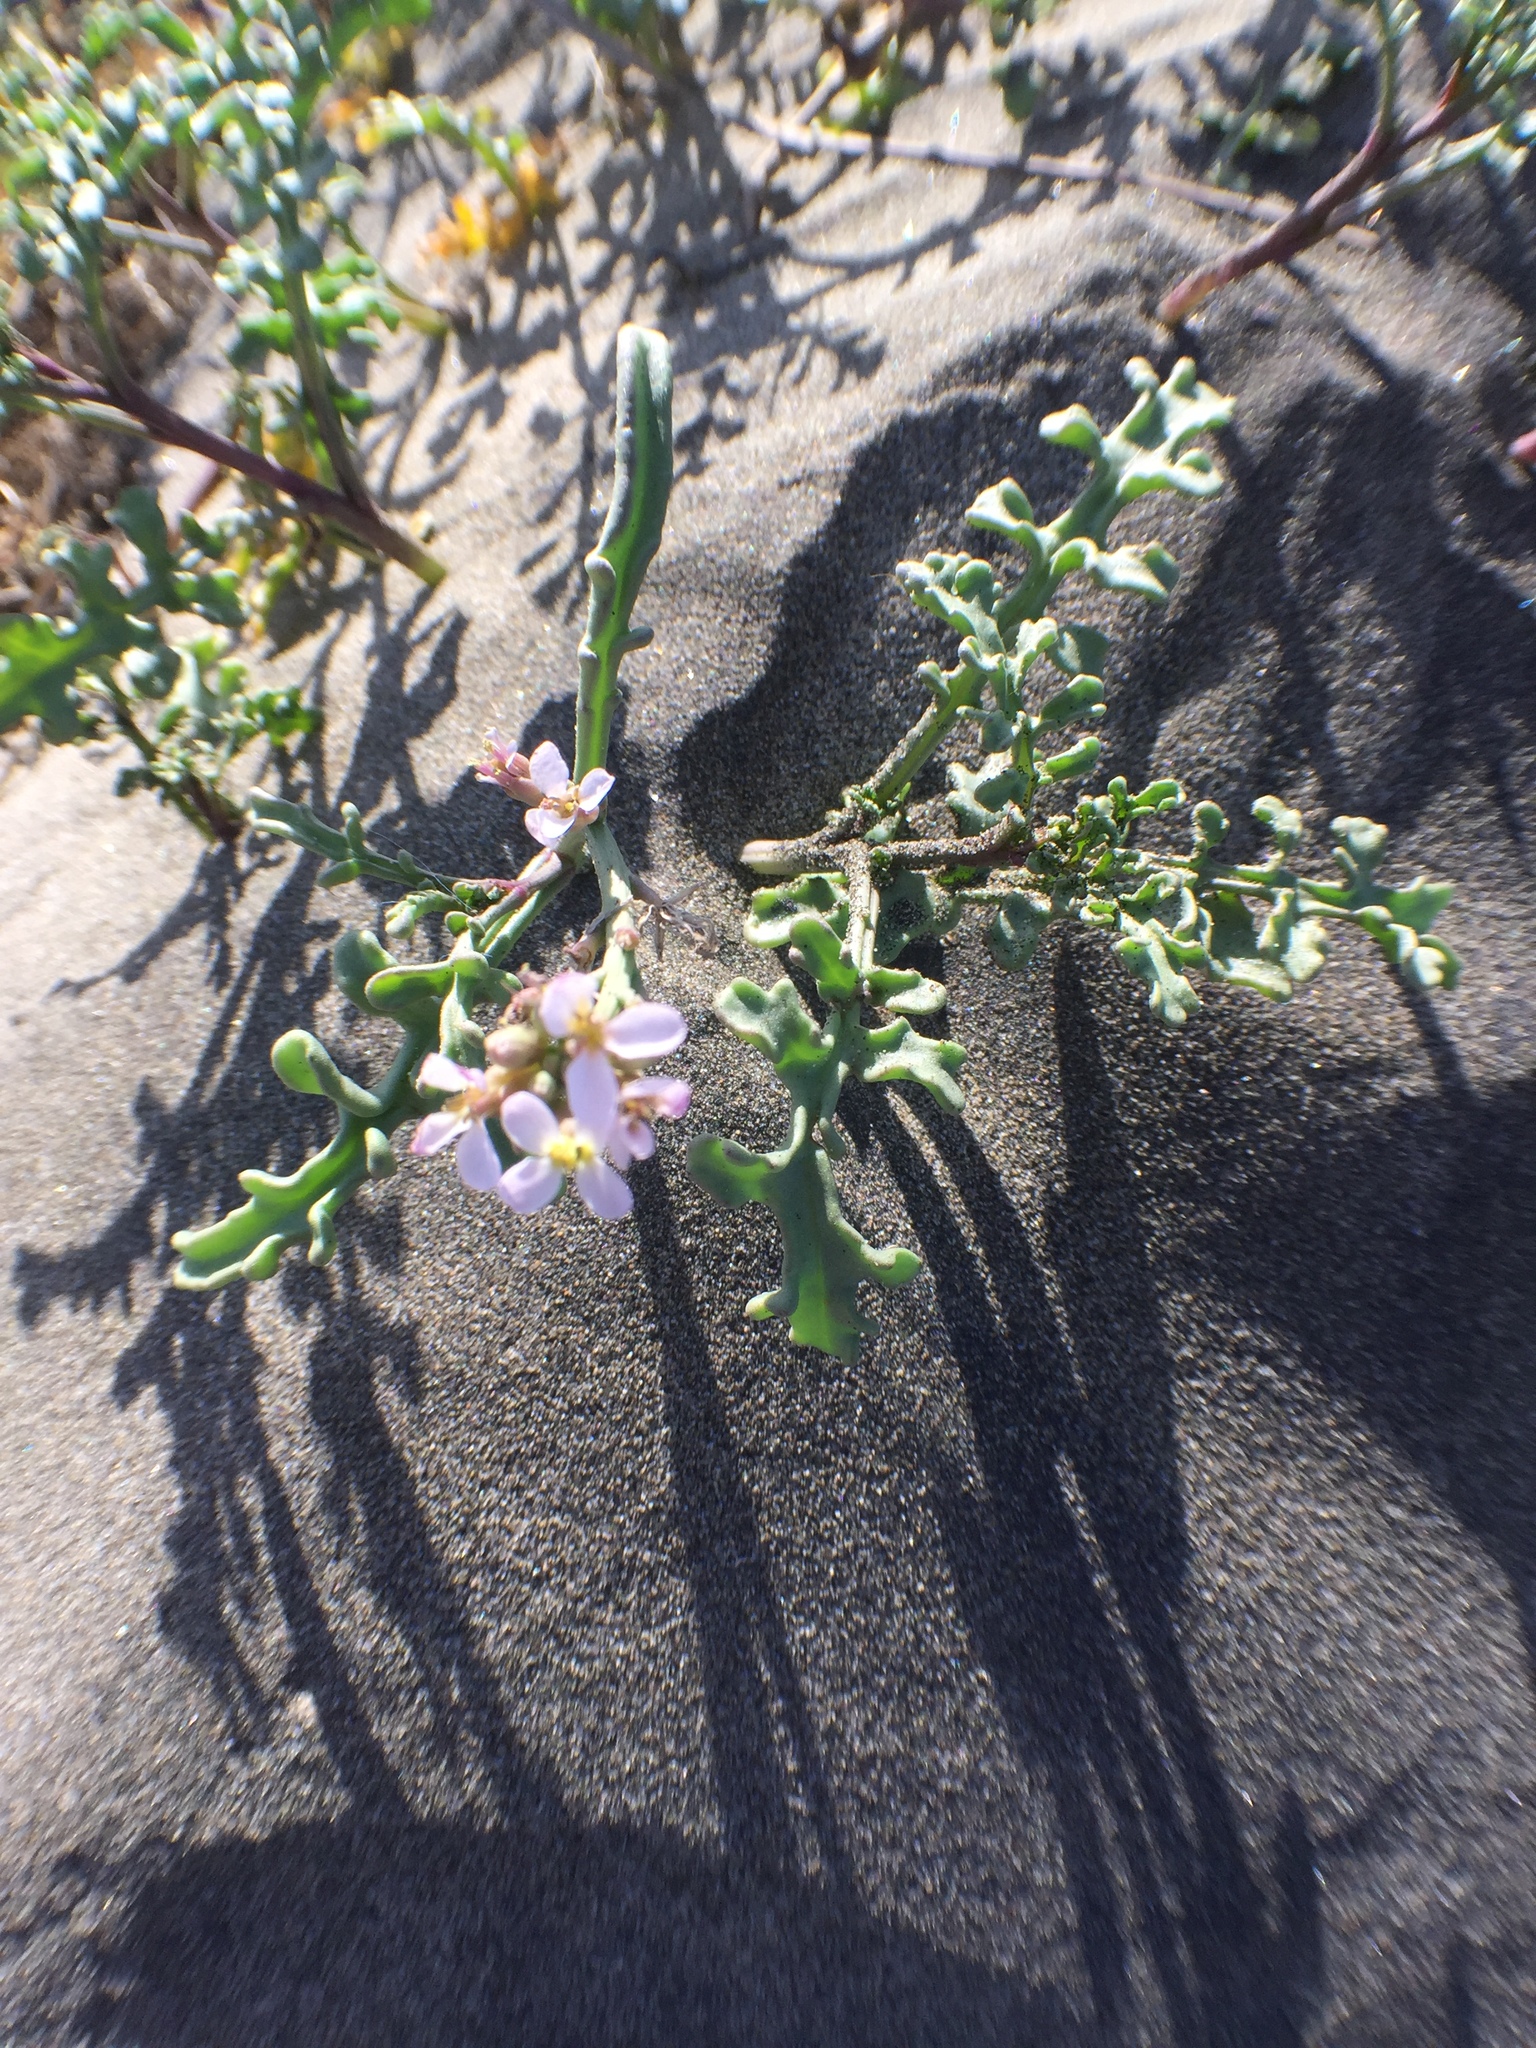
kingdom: Plantae
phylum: Tracheophyta
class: Magnoliopsida
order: Brassicales
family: Brassicaceae
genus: Cakile
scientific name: Cakile maritima
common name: Sea rocket
